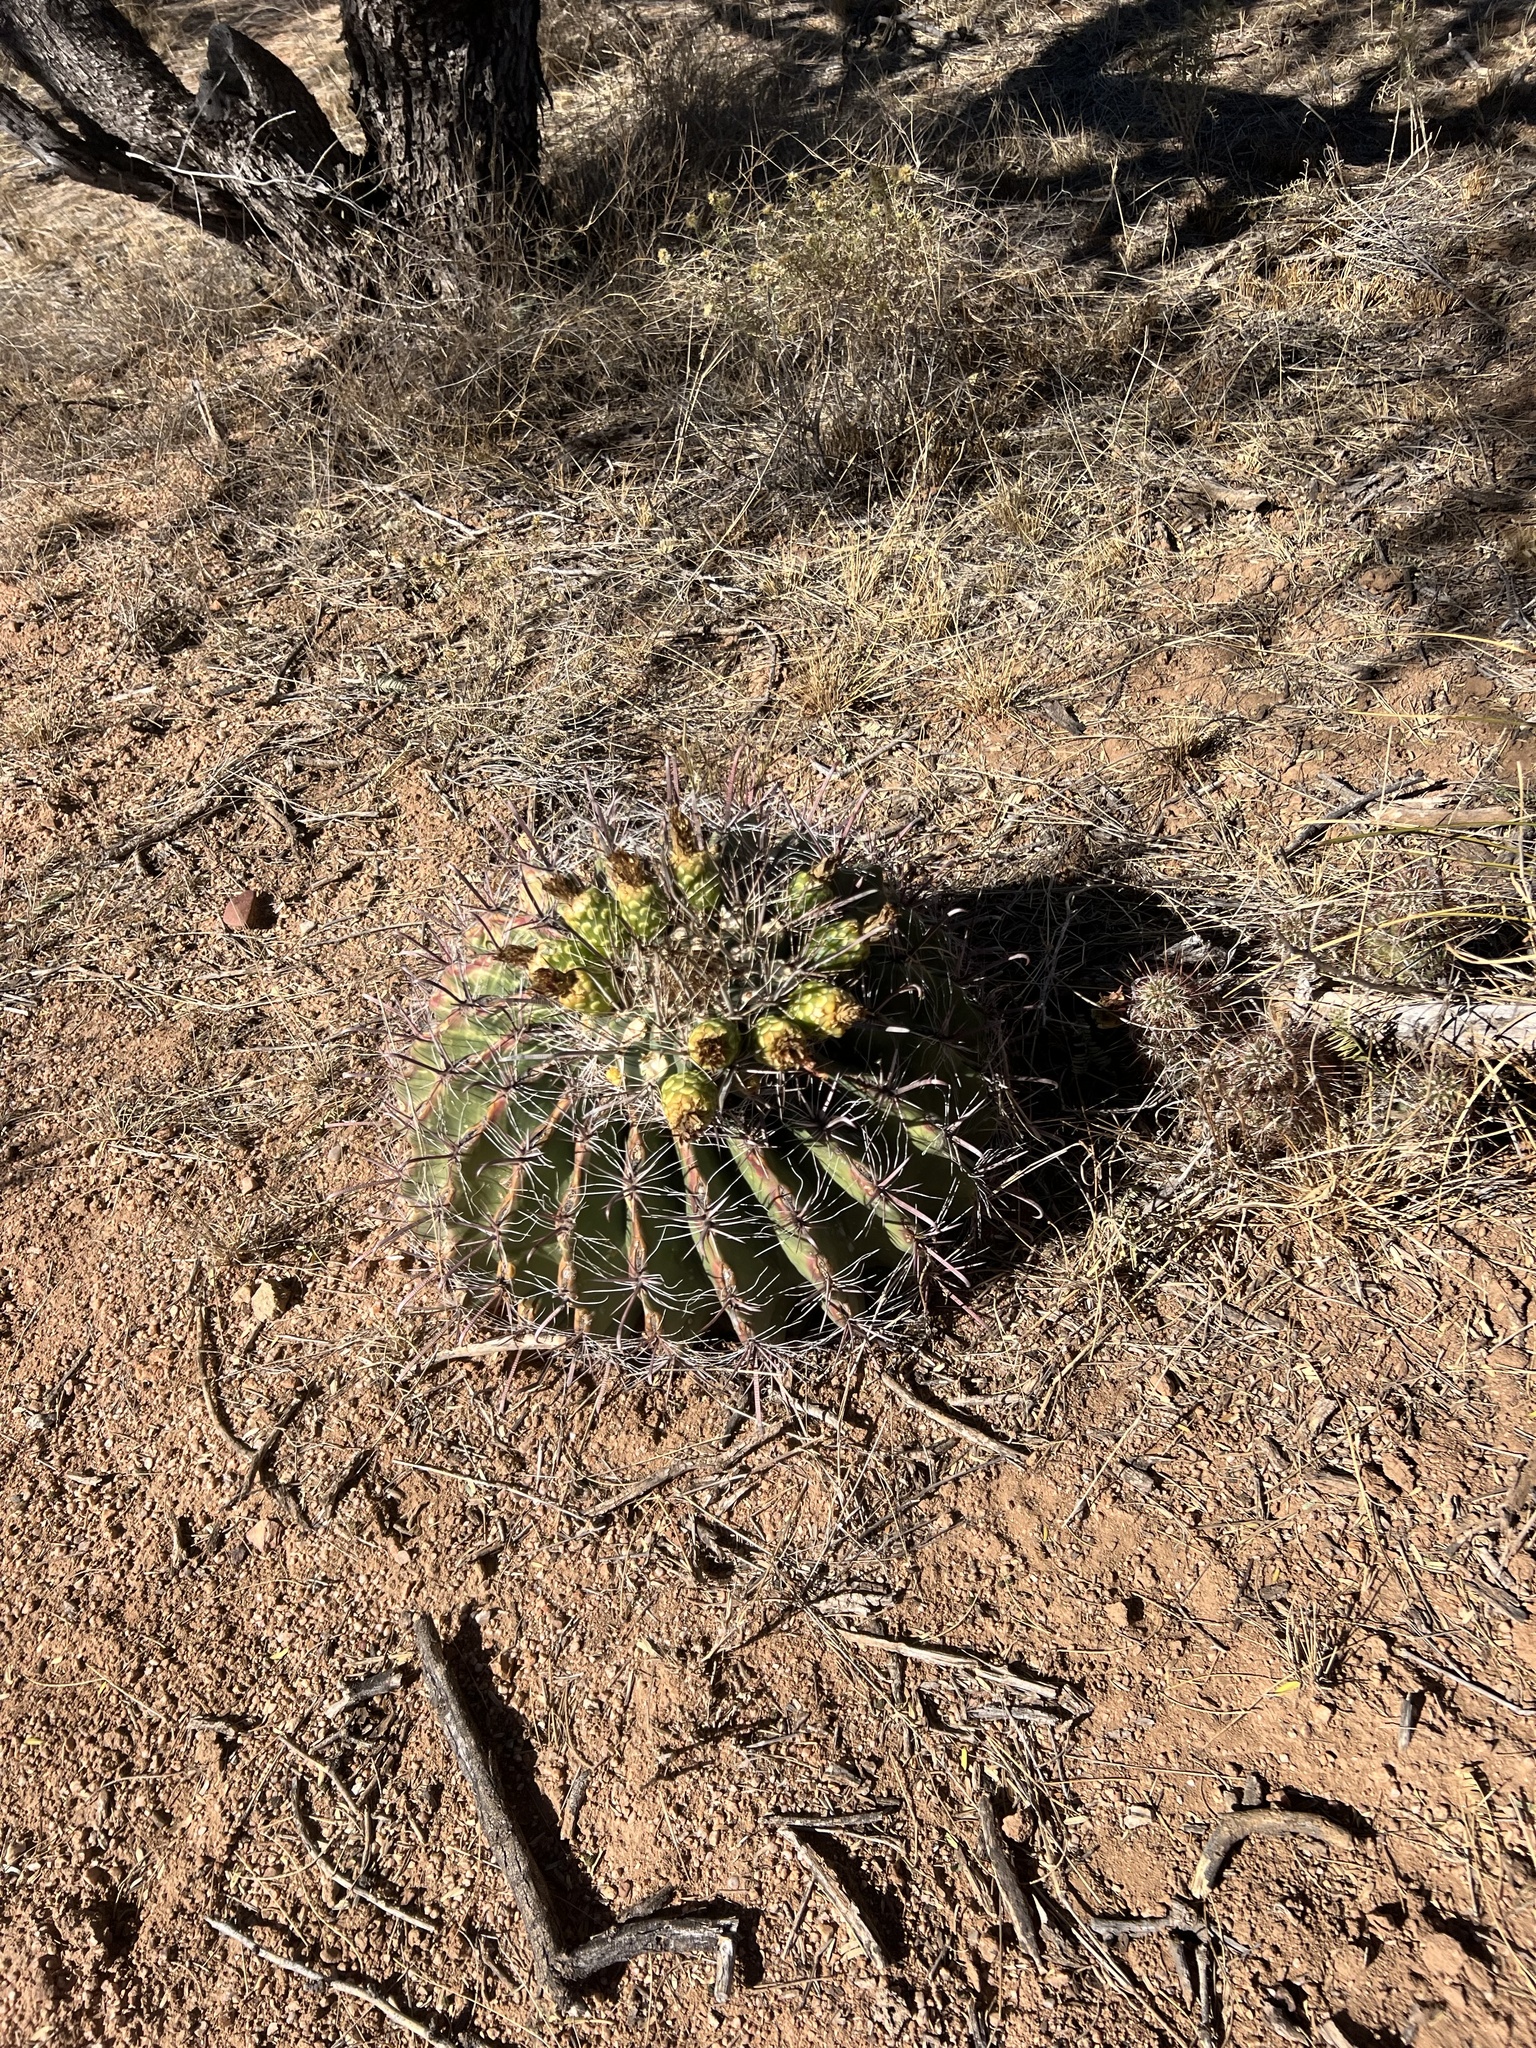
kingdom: Plantae
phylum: Tracheophyta
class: Magnoliopsida
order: Caryophyllales
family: Cactaceae
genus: Ferocactus
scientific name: Ferocactus wislizeni
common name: Candy barrel cactus
